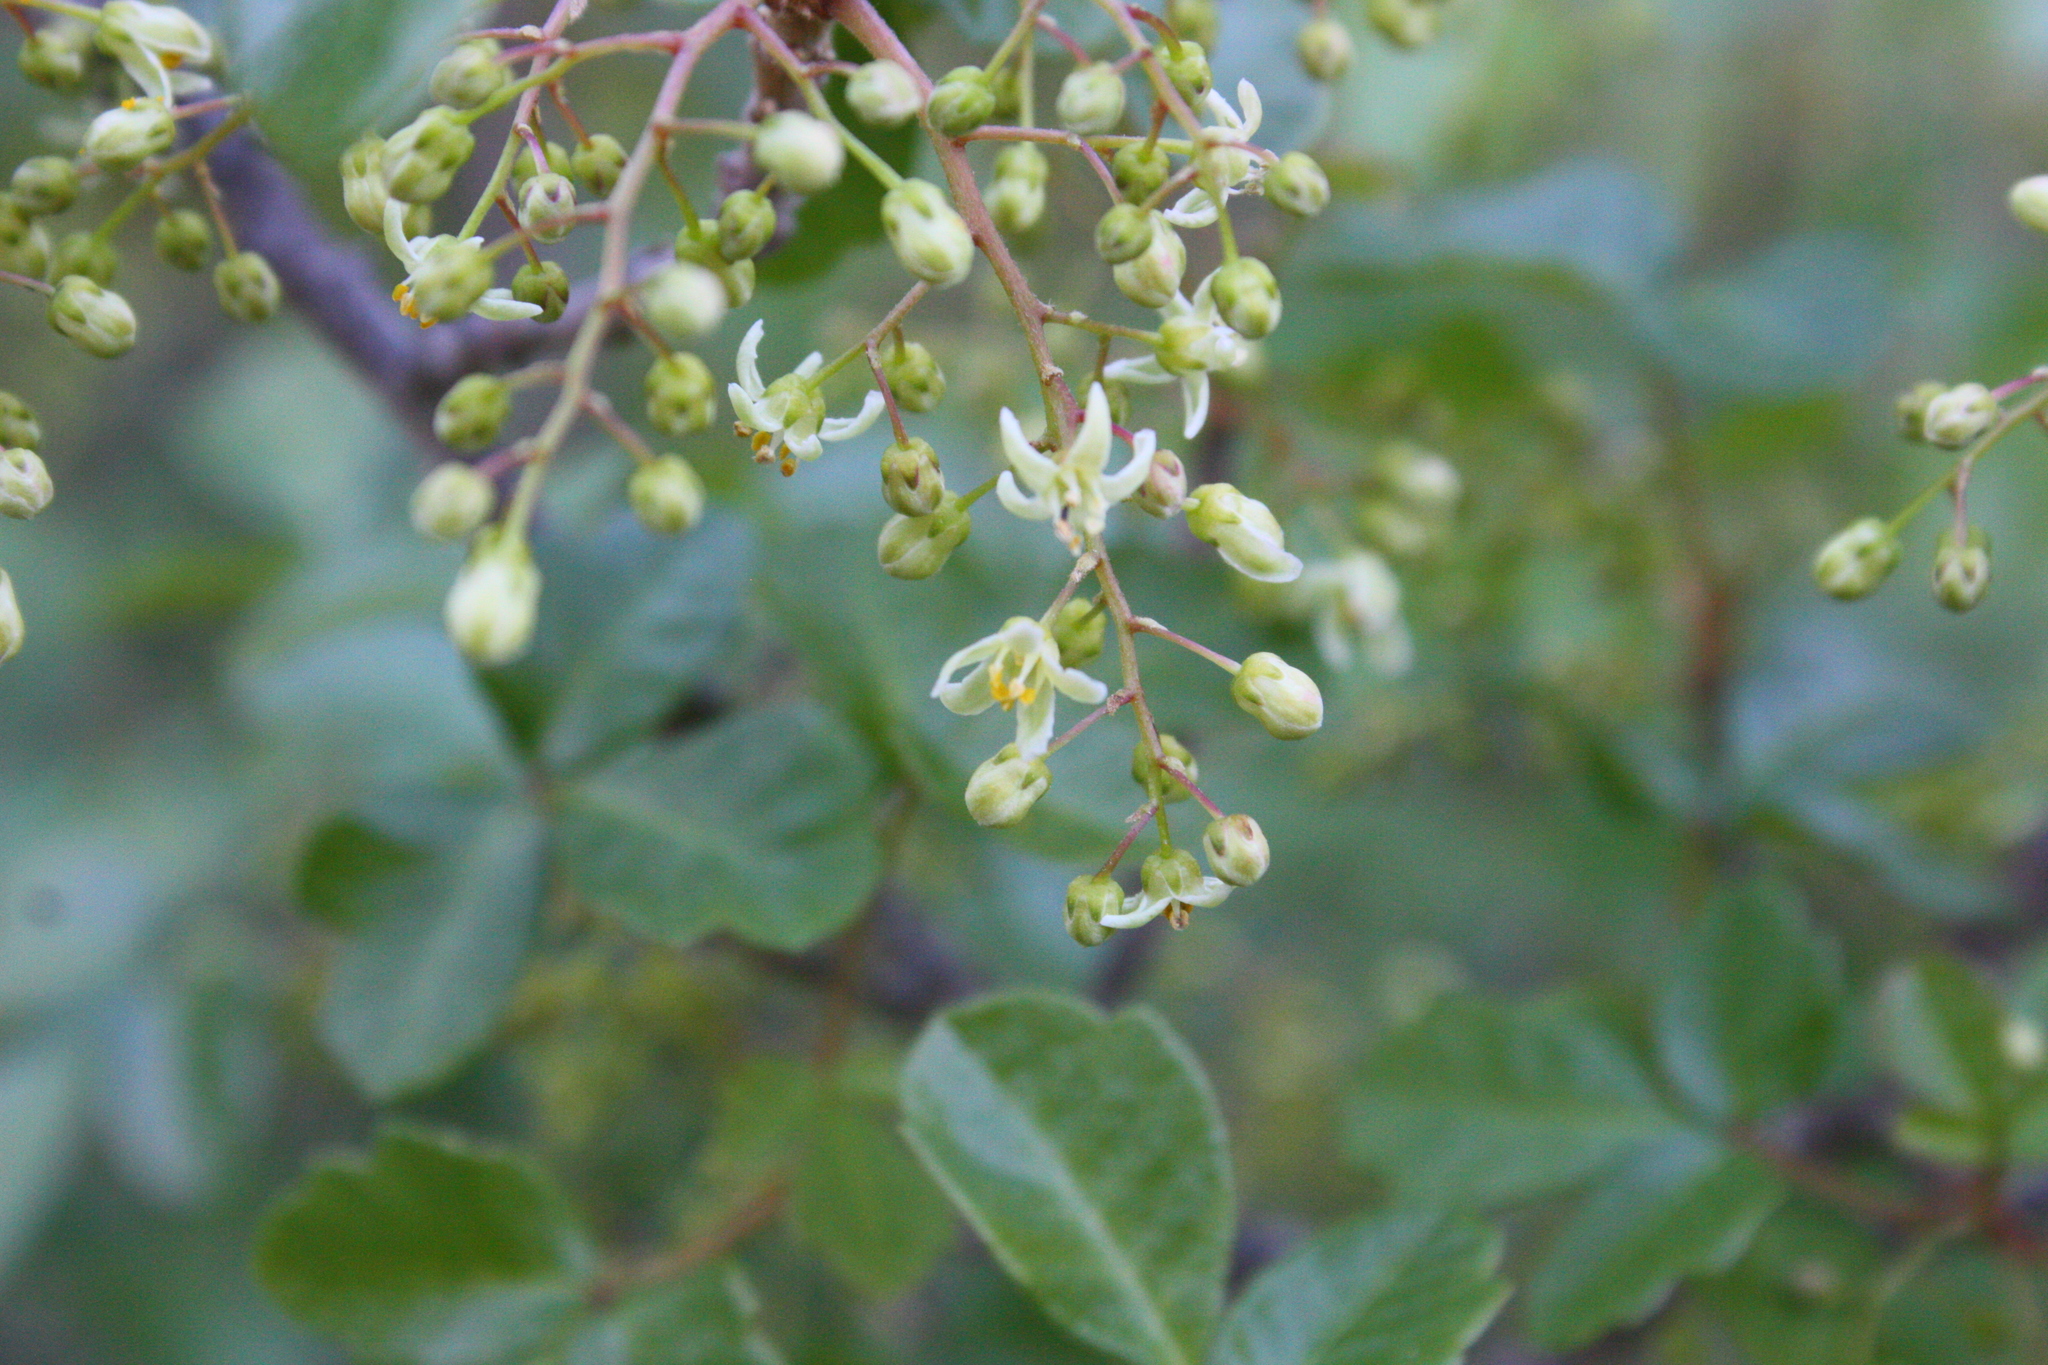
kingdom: Plantae
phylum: Tracheophyta
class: Magnoliopsida
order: Sapindales
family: Anacardiaceae
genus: Toxicodendron
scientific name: Toxicodendron diversilobum
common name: Pacific poison-oak
